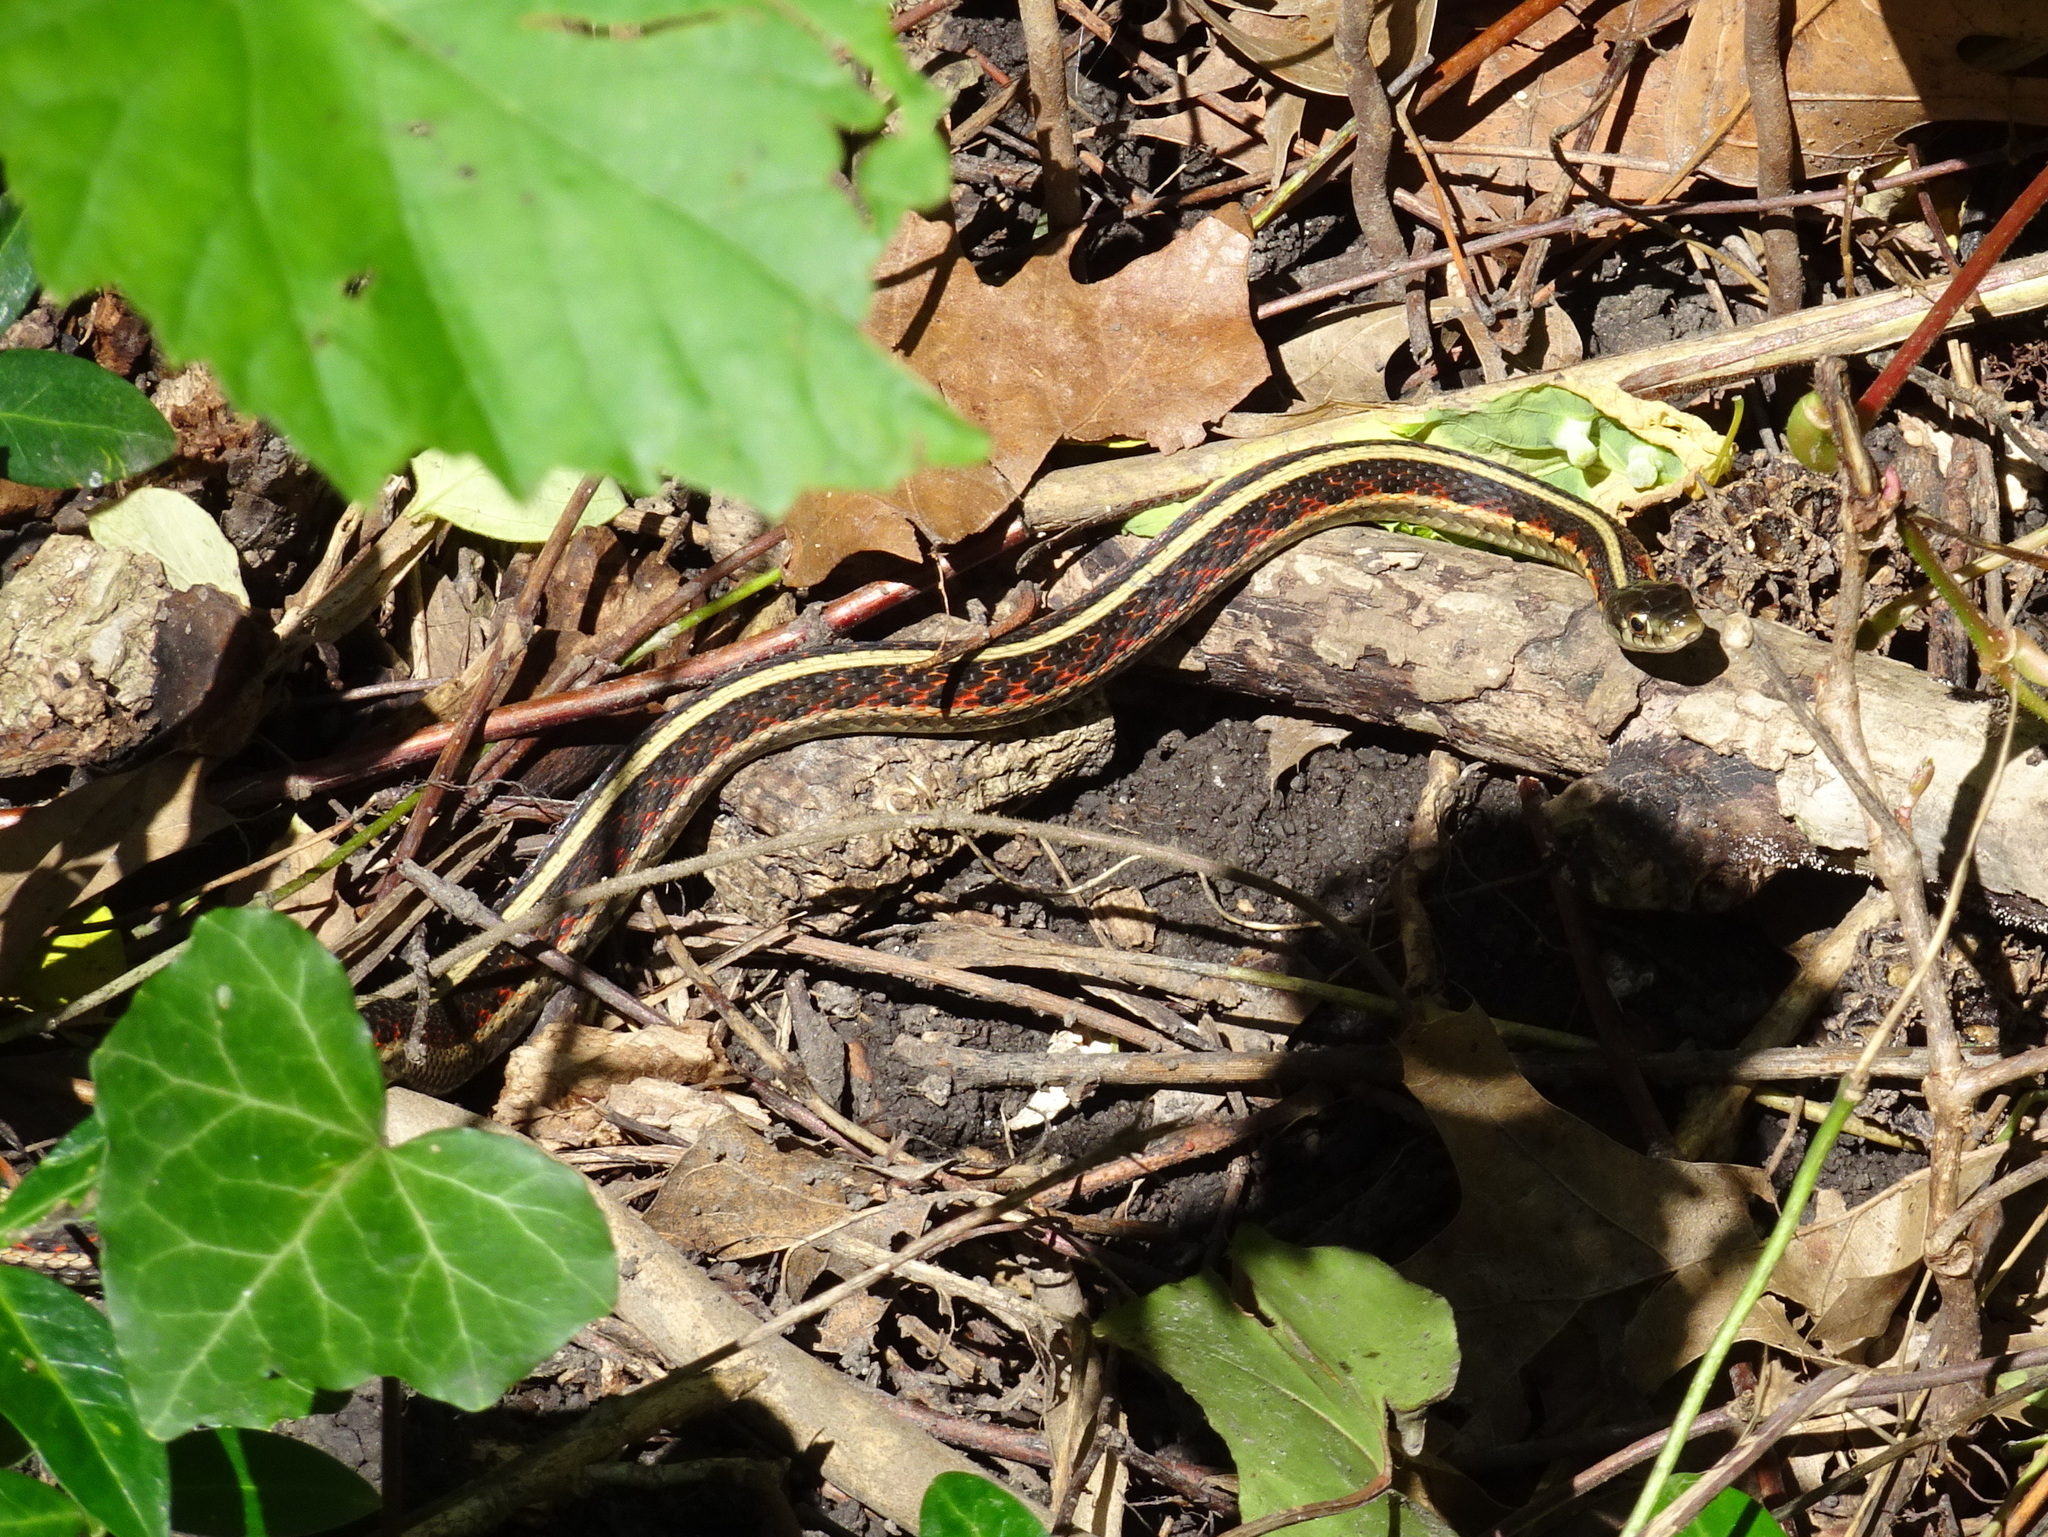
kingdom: Animalia
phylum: Chordata
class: Squamata
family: Colubridae
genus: Thamnophis
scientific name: Thamnophis sirtalis
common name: Common garter snake
